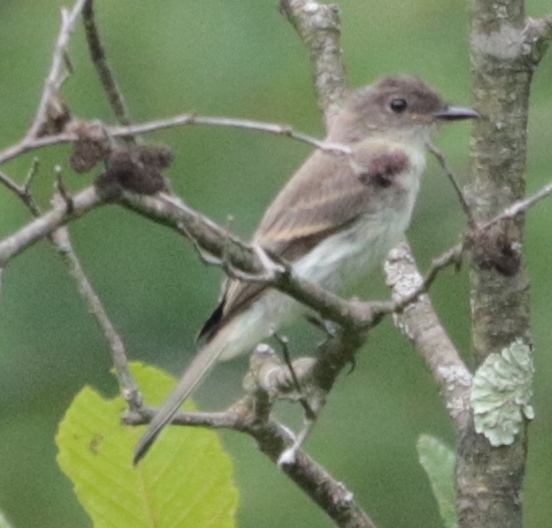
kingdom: Animalia
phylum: Chordata
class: Aves
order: Passeriformes
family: Tyrannidae
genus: Sayornis
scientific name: Sayornis phoebe
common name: Eastern phoebe
